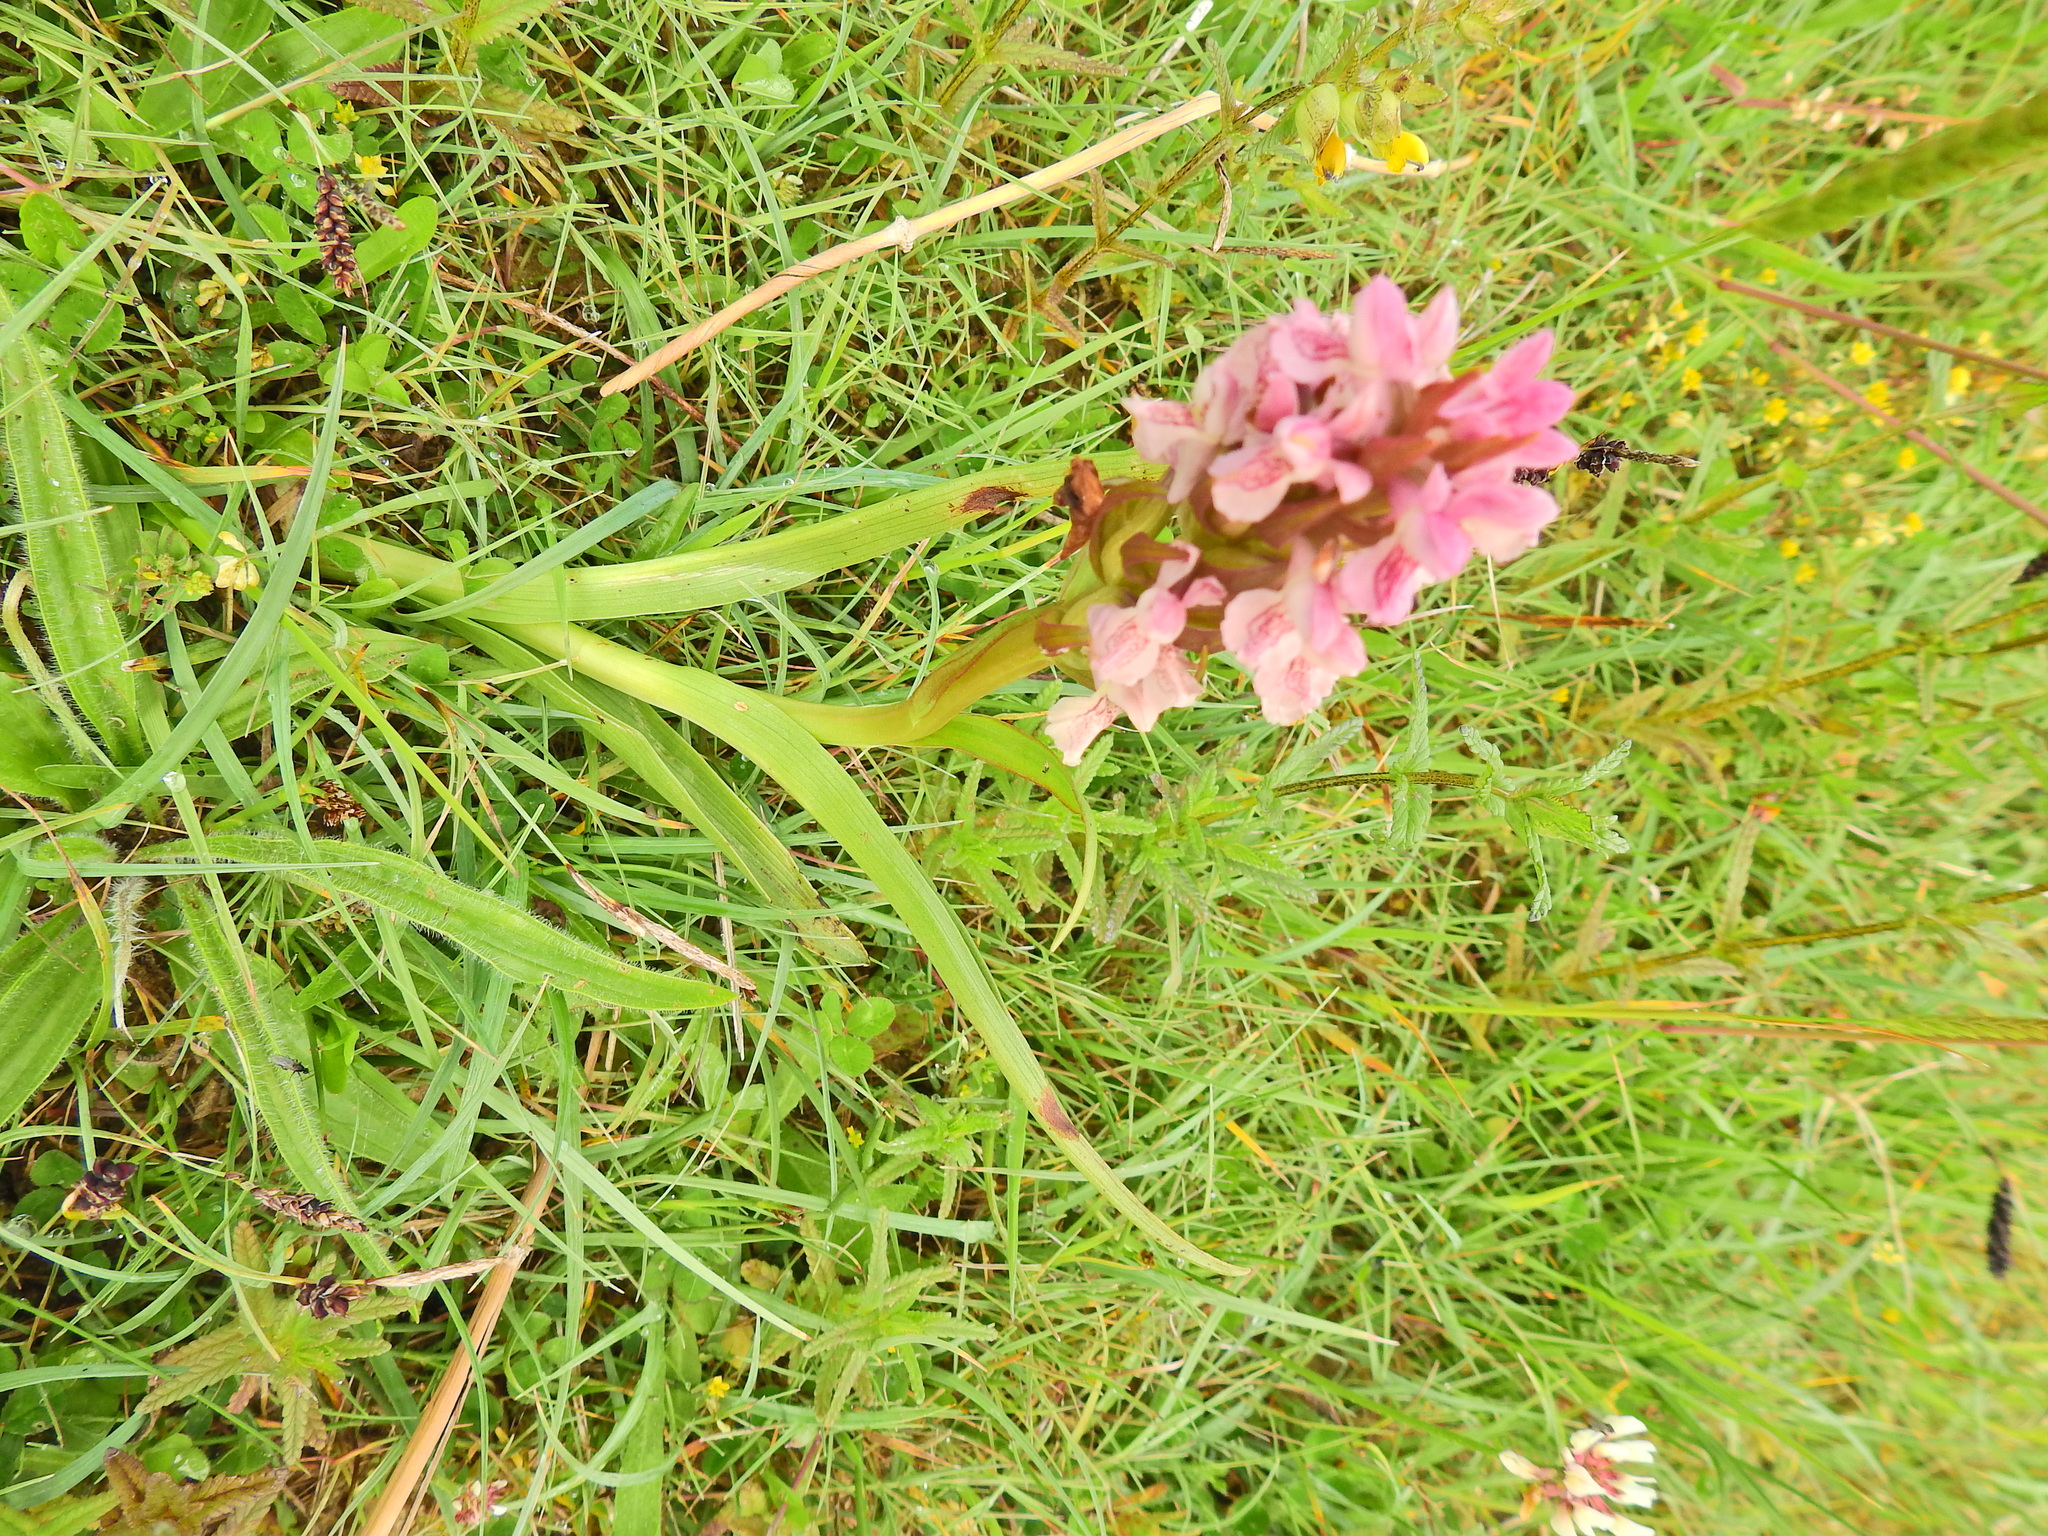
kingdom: Plantae
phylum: Tracheophyta
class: Liliopsida
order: Asparagales
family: Orchidaceae
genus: Dactylorhiza
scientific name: Dactylorhiza incarnata
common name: Early marsh-orchid
